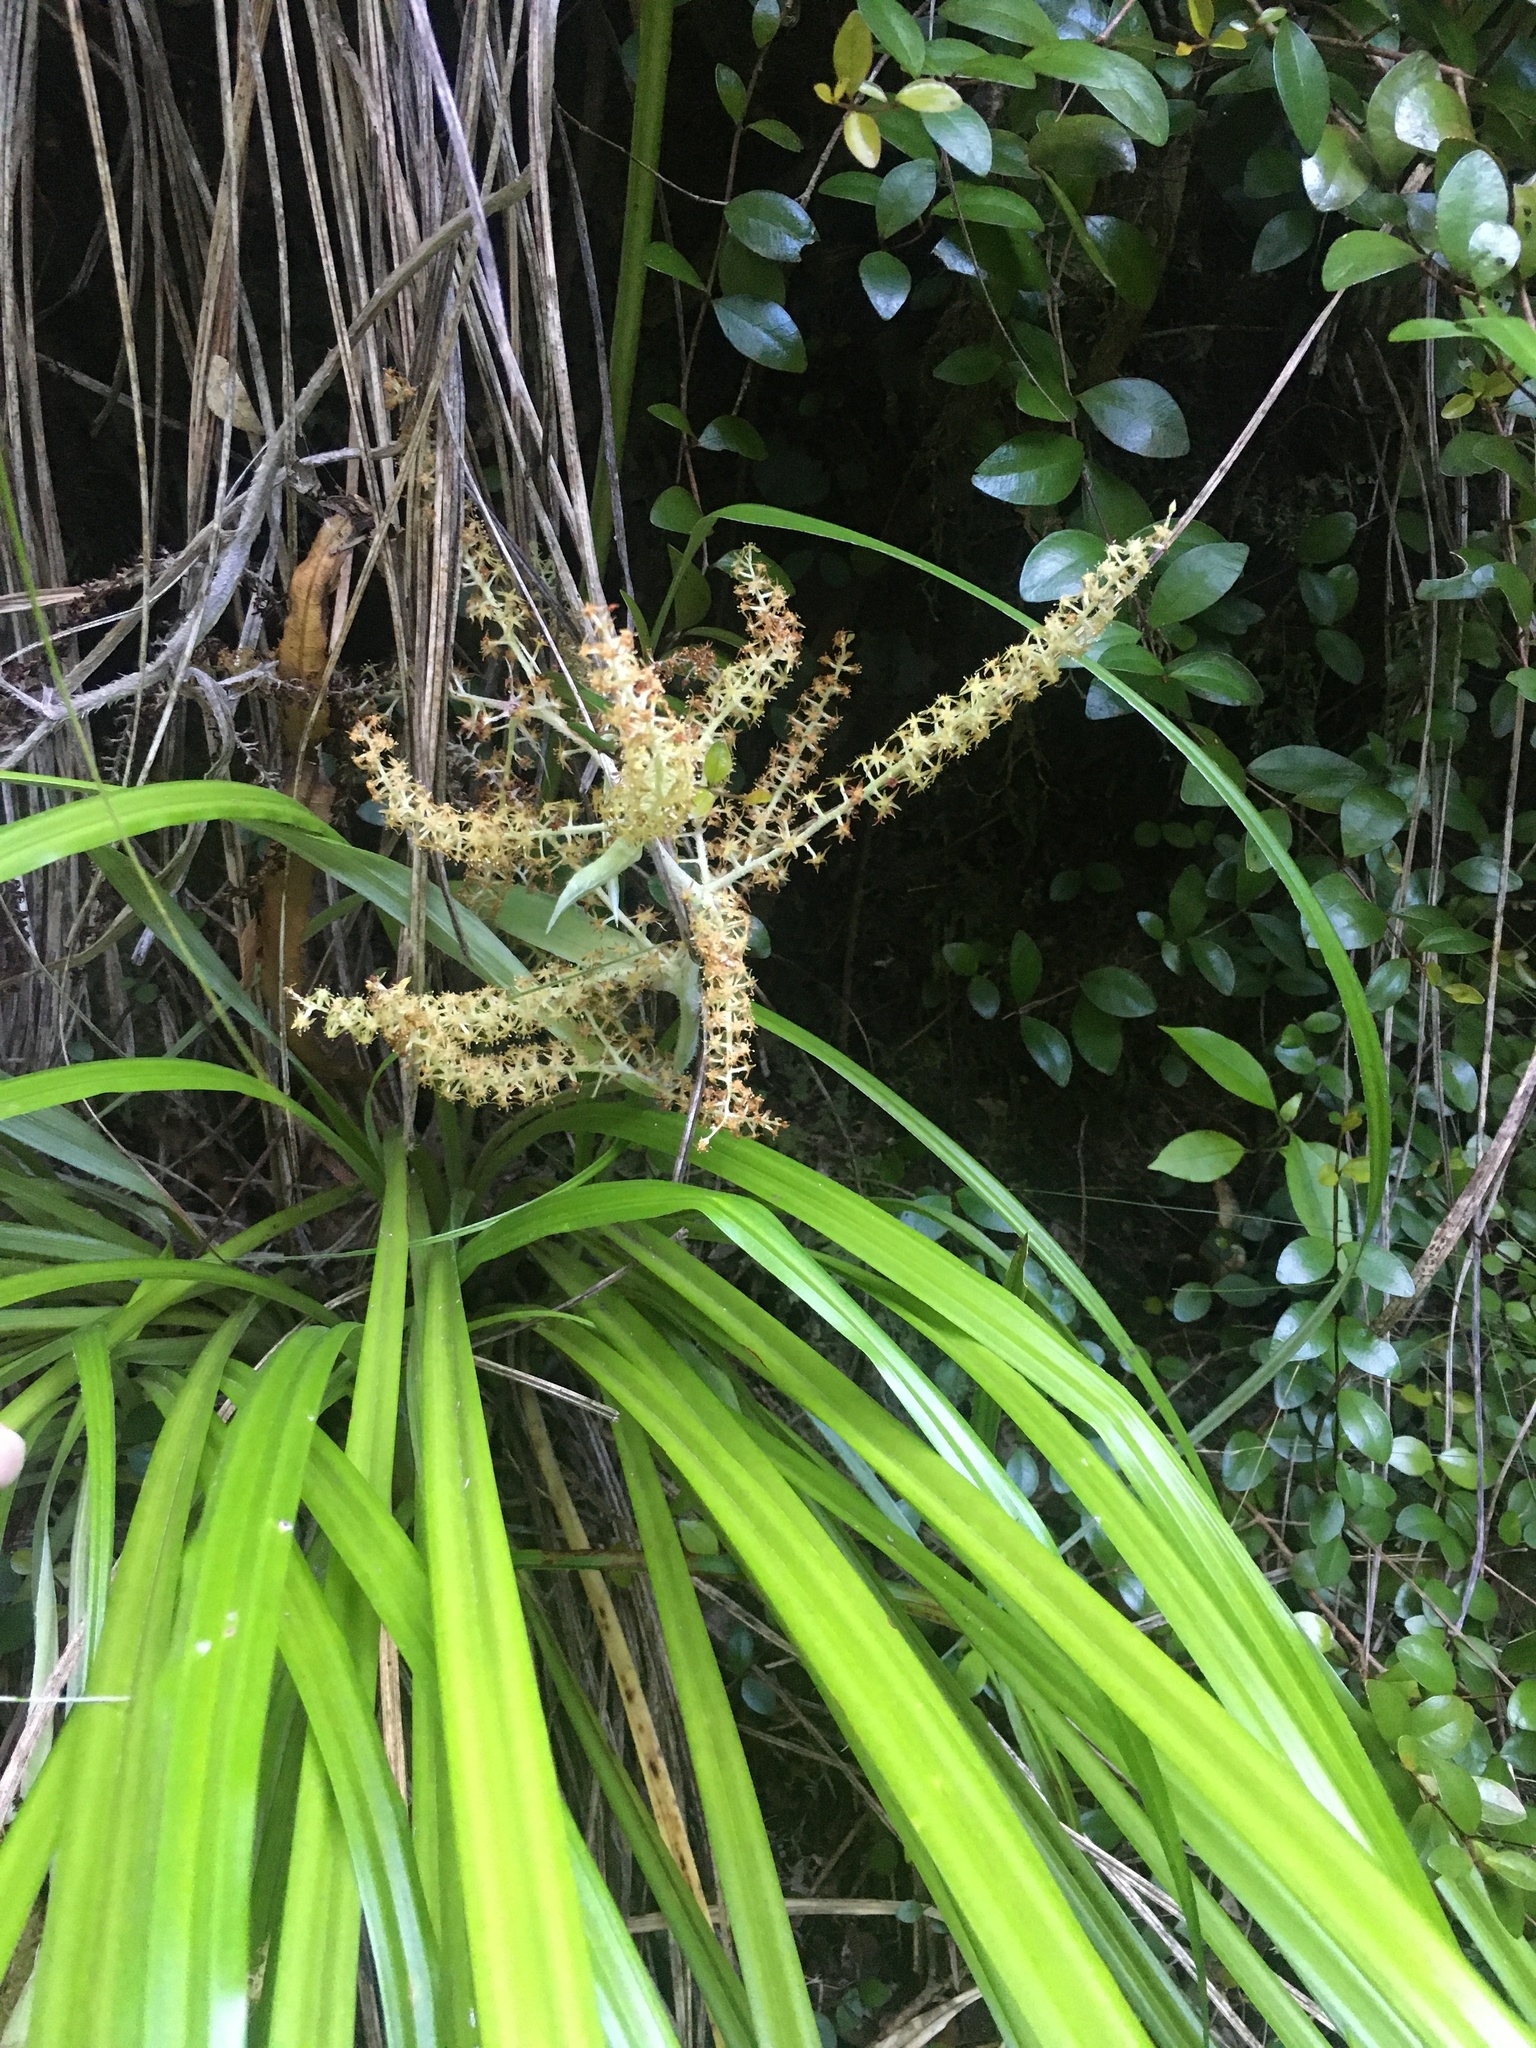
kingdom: Plantae
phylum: Tracheophyta
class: Liliopsida
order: Asparagales
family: Asteliaceae
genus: Astelia
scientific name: Astelia solandri
